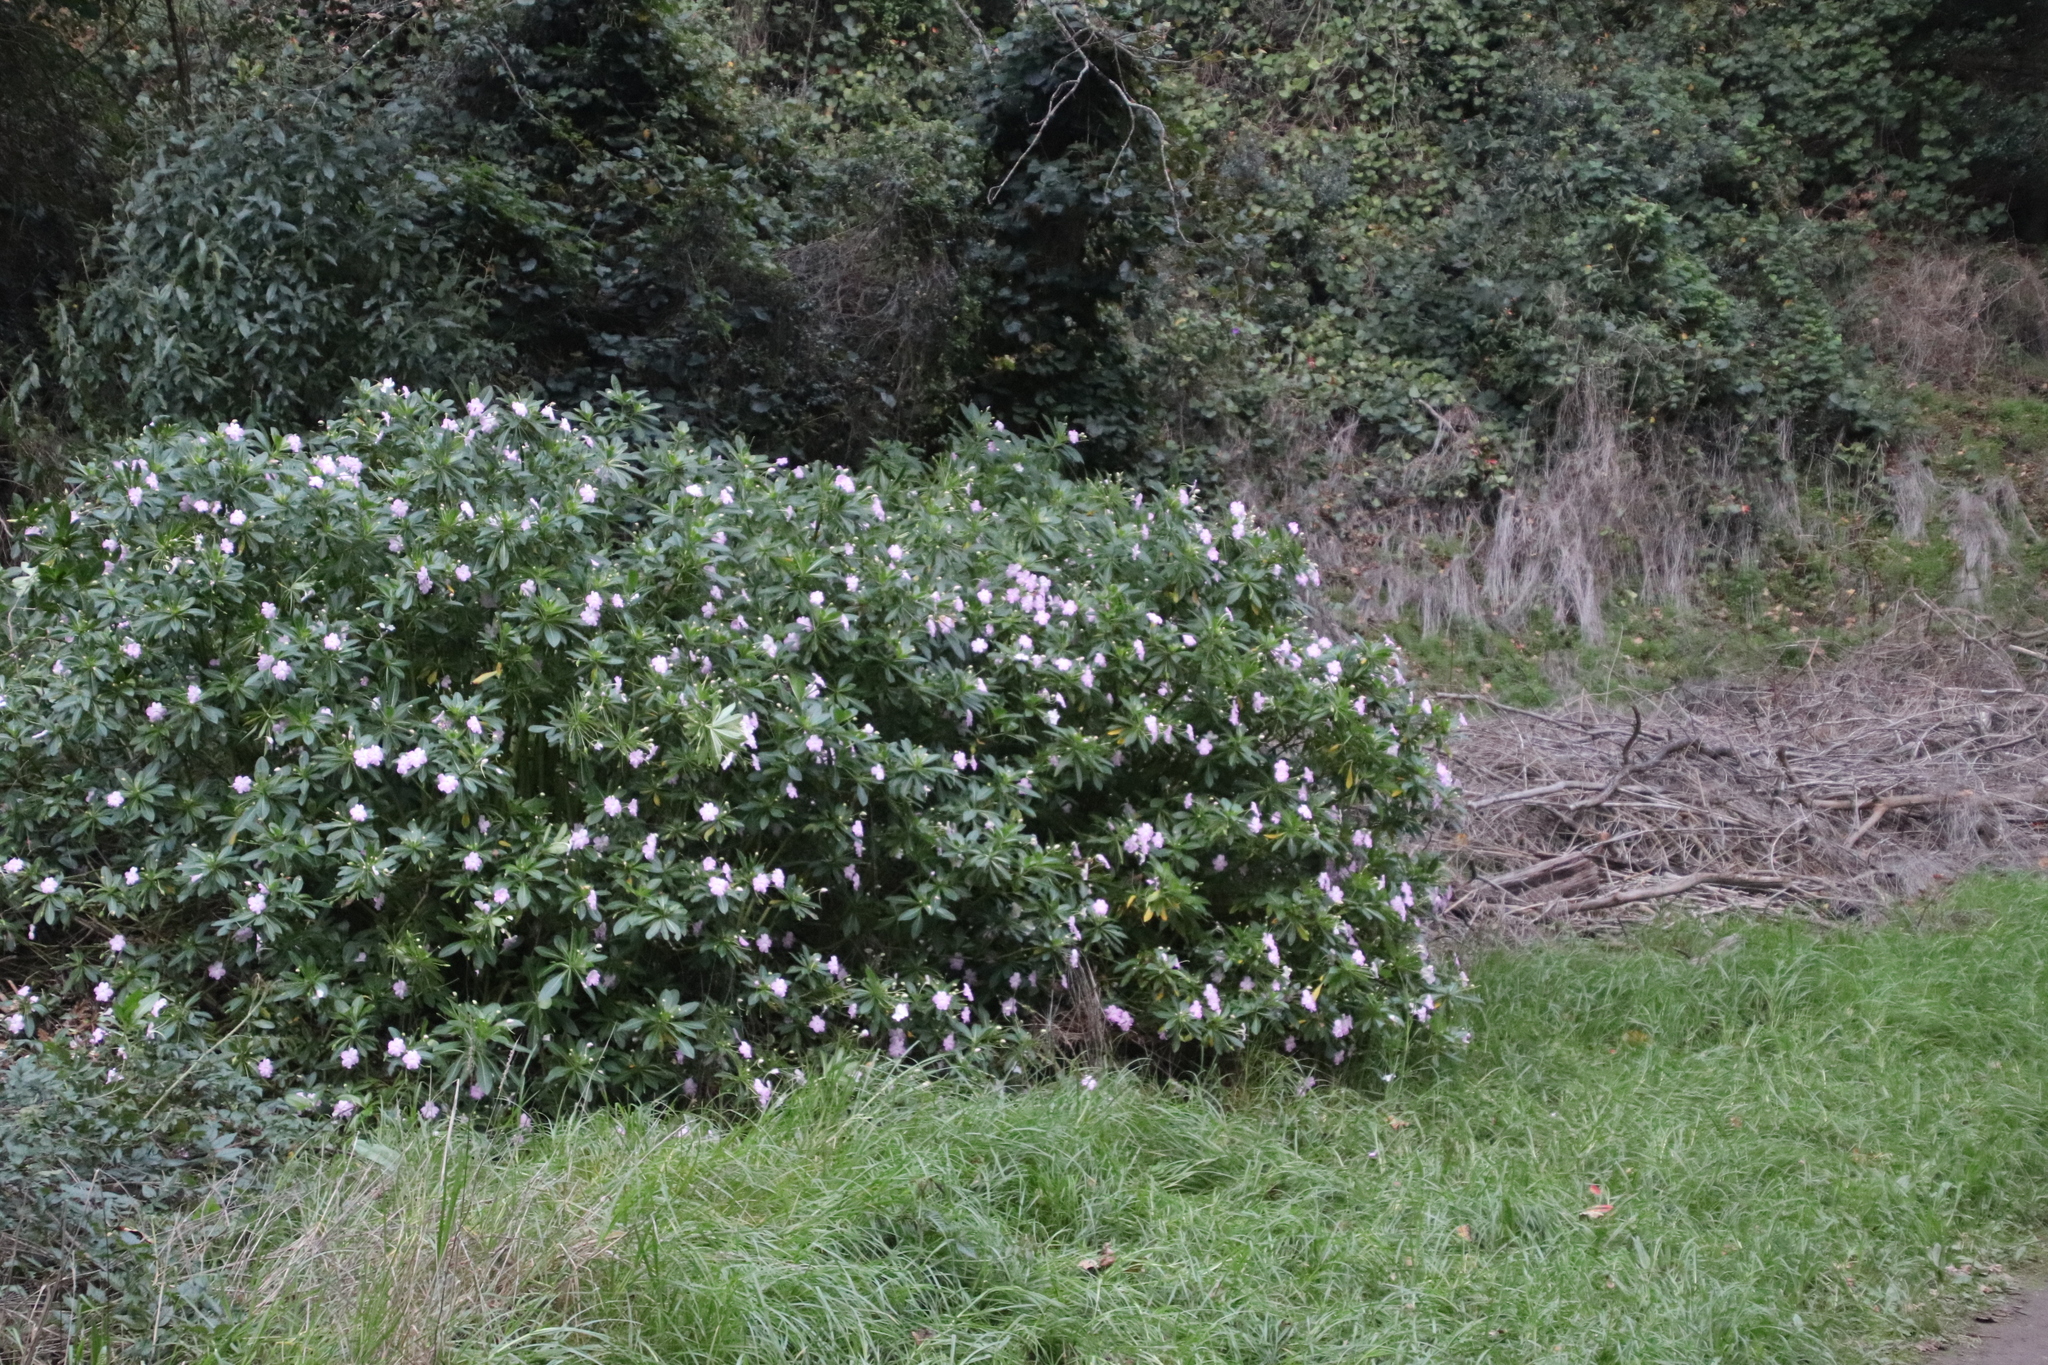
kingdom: Plantae
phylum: Tracheophyta
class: Magnoliopsida
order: Ericales
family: Balsaminaceae
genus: Impatiens
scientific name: Impatiens sodenii
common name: Oliver's touch-me-not
